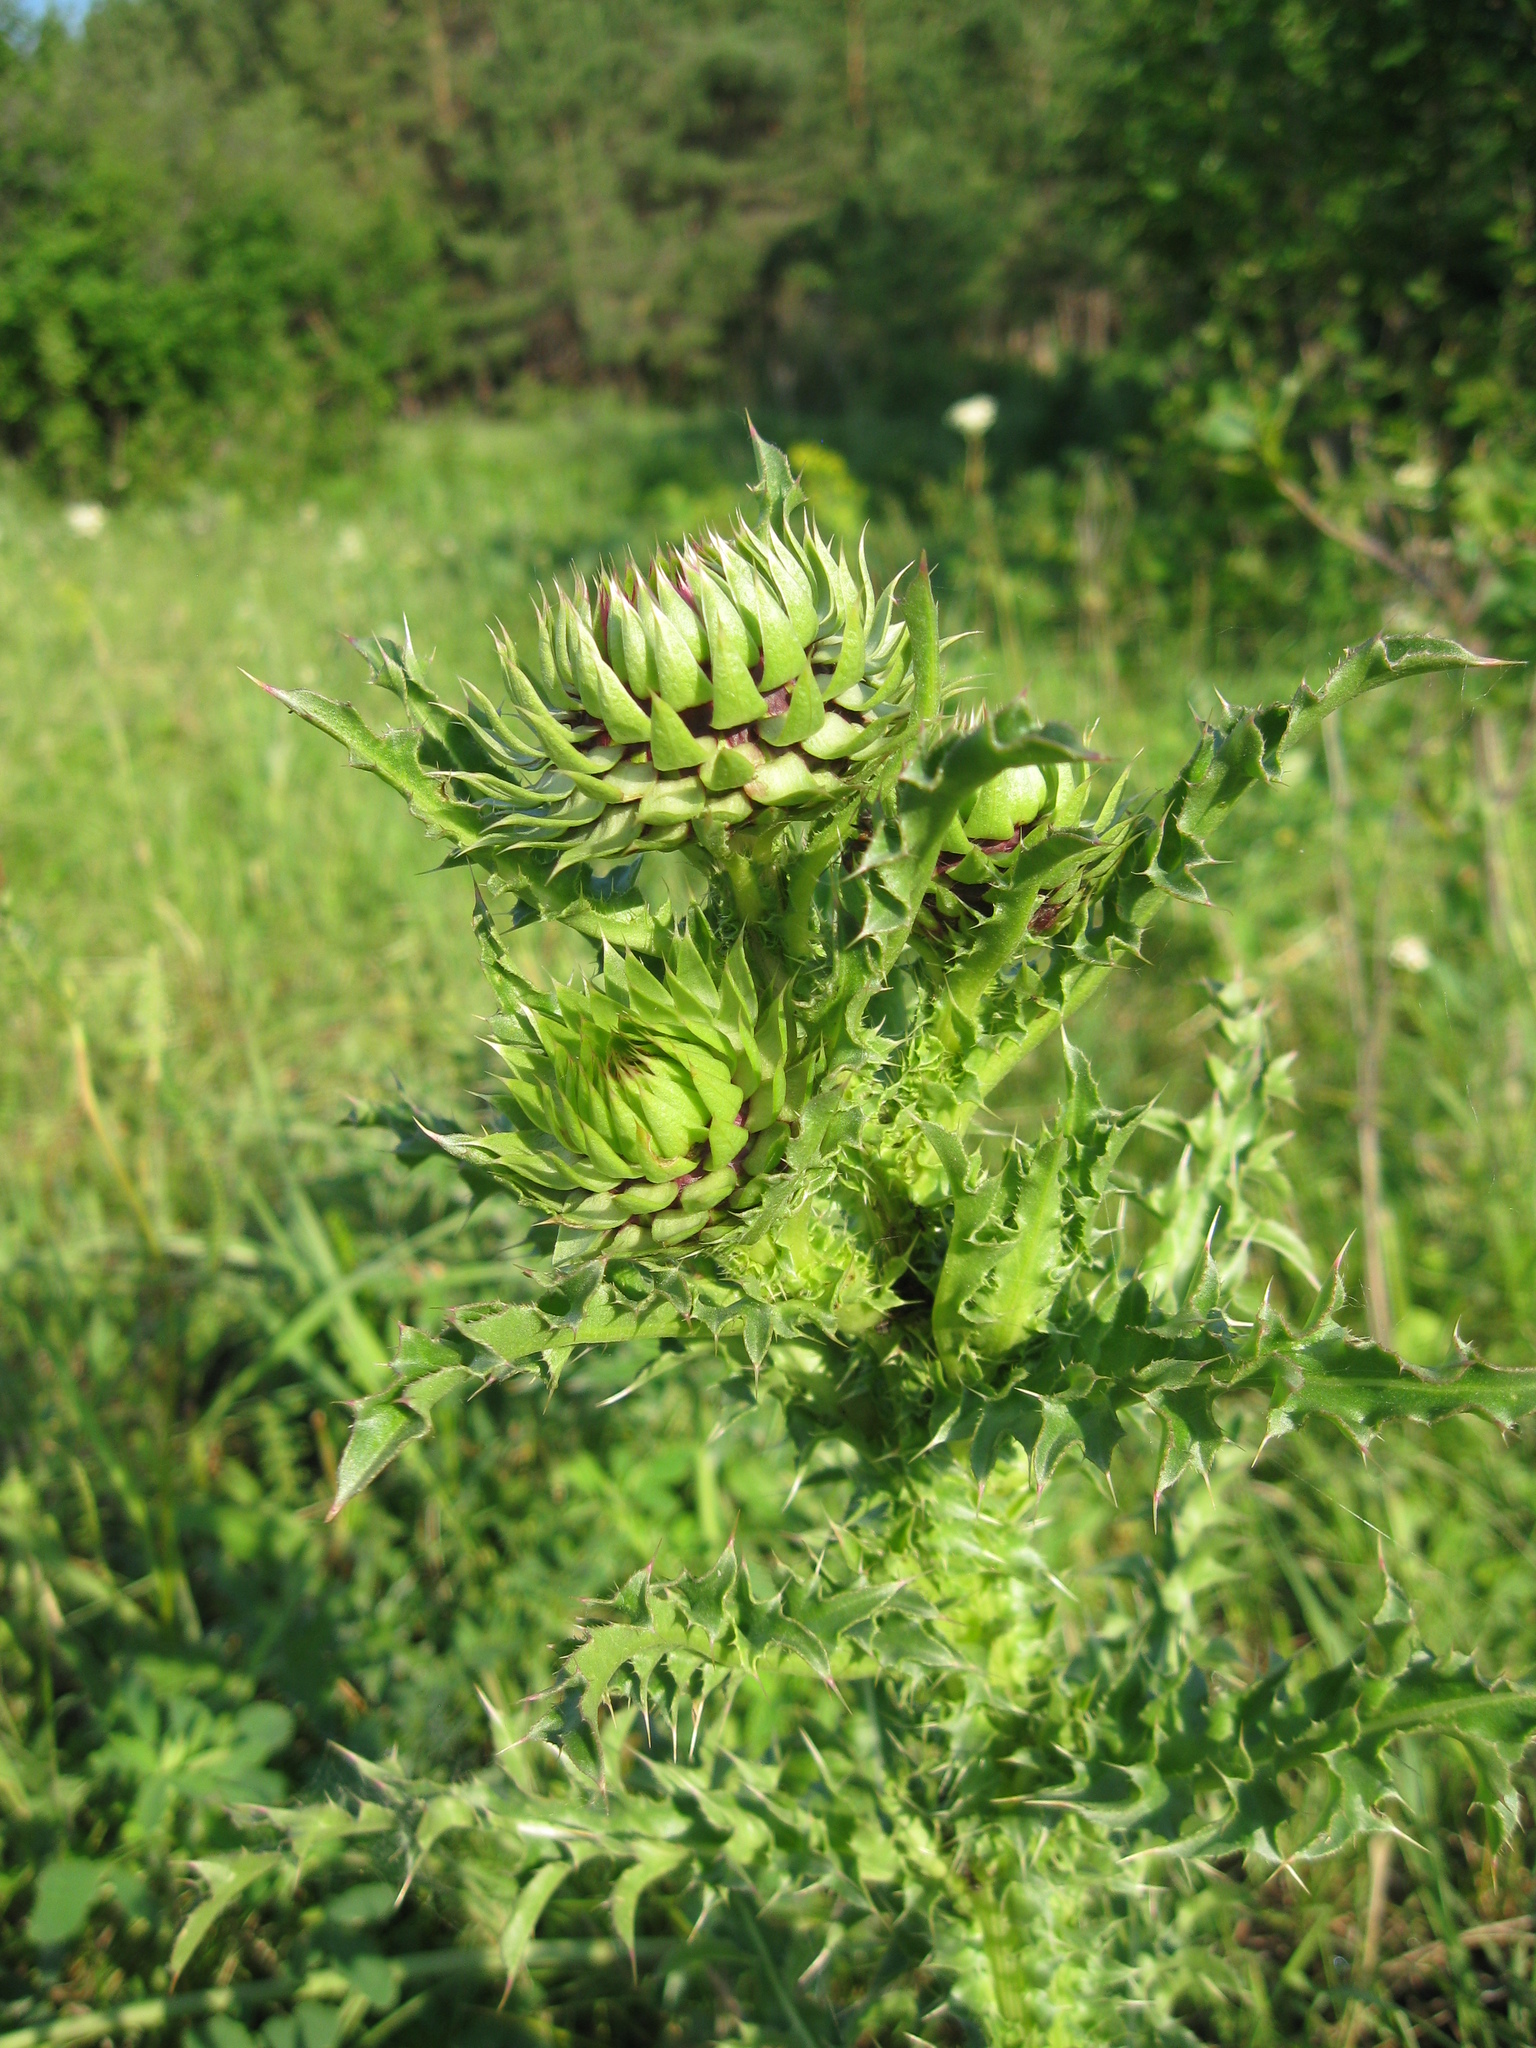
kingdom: Plantae
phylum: Tracheophyta
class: Magnoliopsida
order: Asterales
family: Asteraceae
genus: Carduus
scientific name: Carduus nutans
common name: Musk thistle
